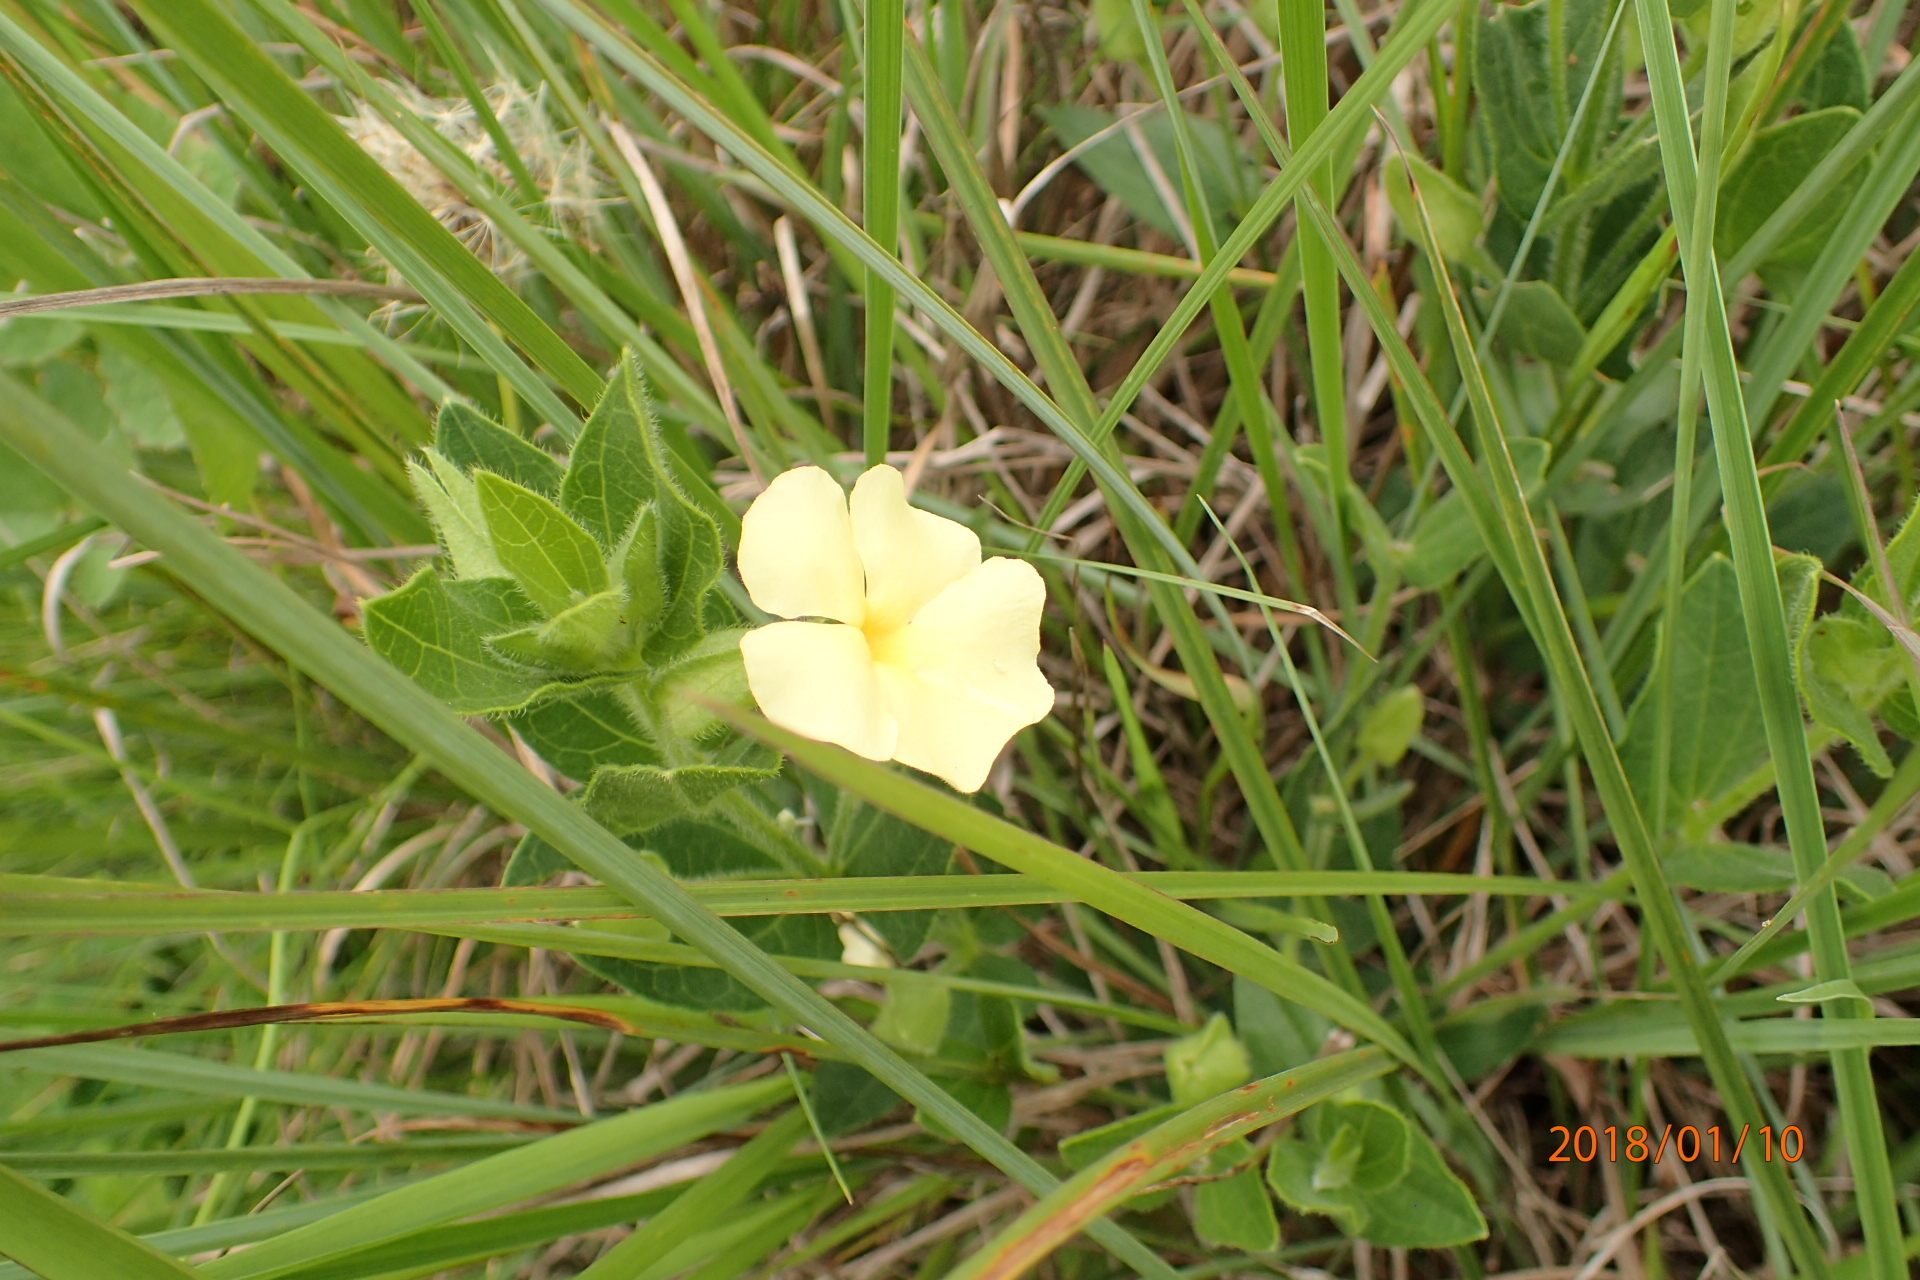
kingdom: Plantae
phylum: Tracheophyta
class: Magnoliopsida
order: Lamiales
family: Acanthaceae
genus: Thunbergia
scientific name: Thunbergia atriplicifolia
